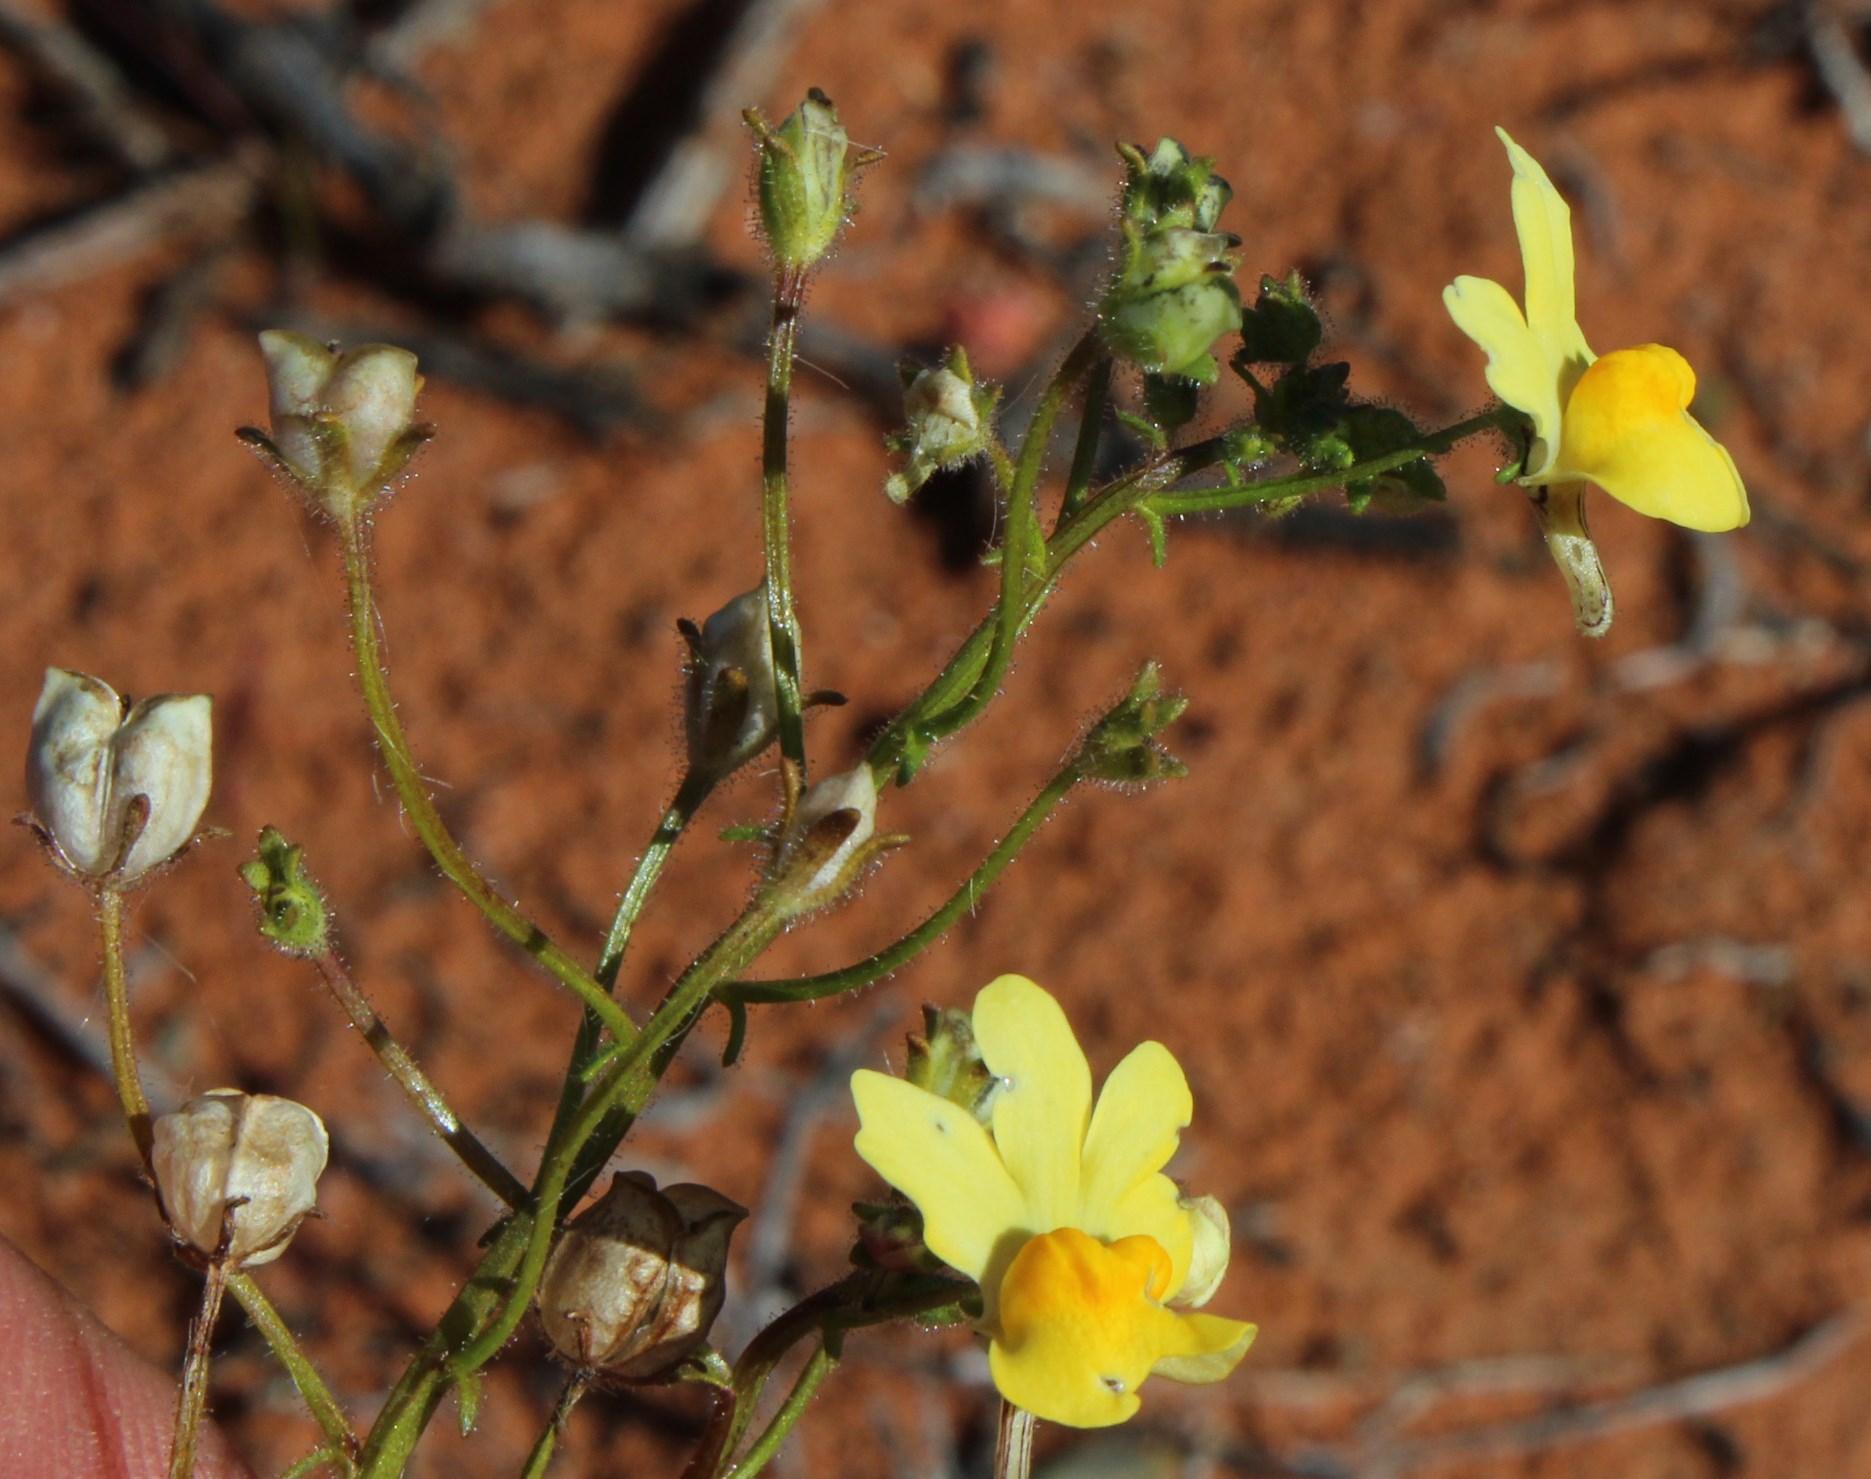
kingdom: Plantae
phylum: Tracheophyta
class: Magnoliopsida
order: Lamiales
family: Scrophulariaceae
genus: Nemesia
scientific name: Nemesia affinis
